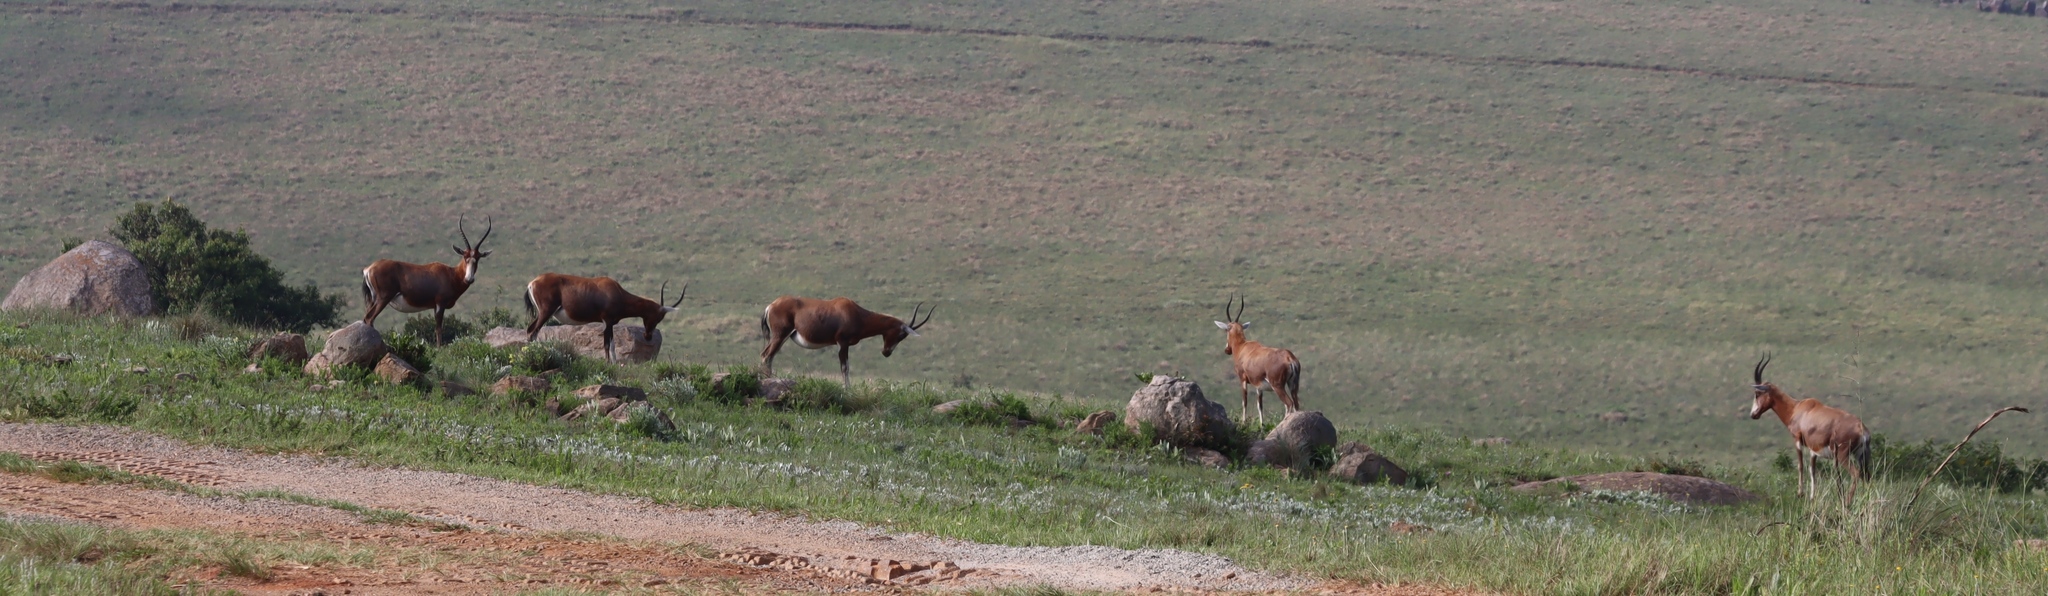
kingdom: Animalia
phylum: Chordata
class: Mammalia
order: Artiodactyla
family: Bovidae
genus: Damaliscus
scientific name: Damaliscus pygargus
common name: Bontebok
